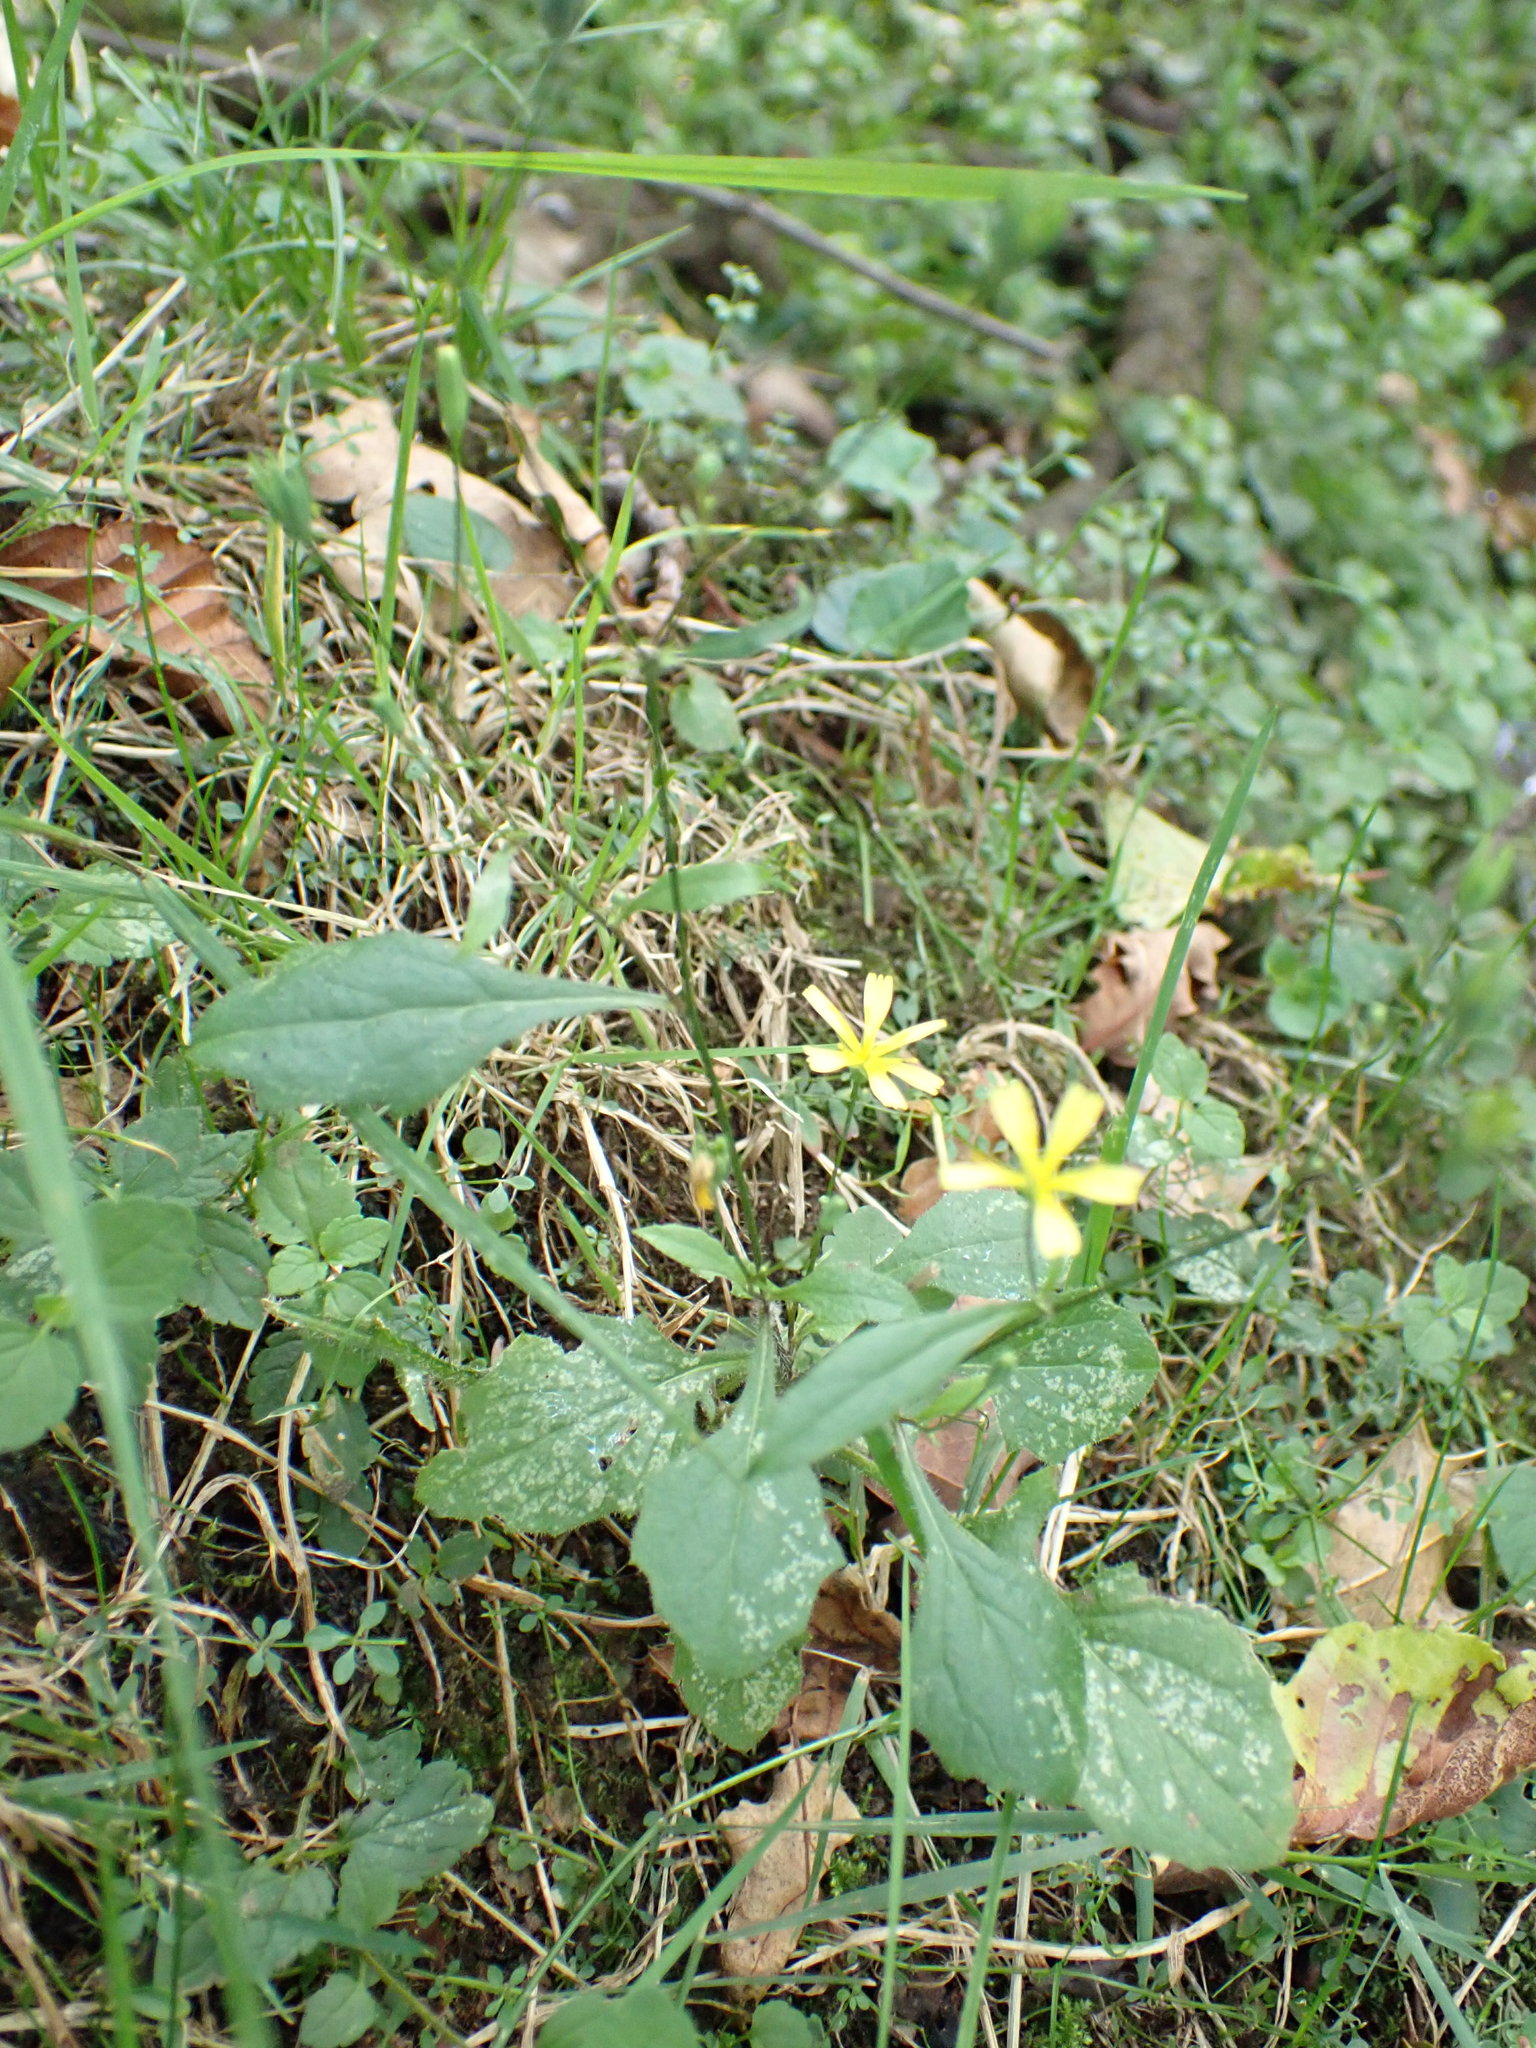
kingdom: Plantae
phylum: Tracheophyta
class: Magnoliopsida
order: Asterales
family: Asteraceae
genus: Lapsana
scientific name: Lapsana communis
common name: Nipplewort
